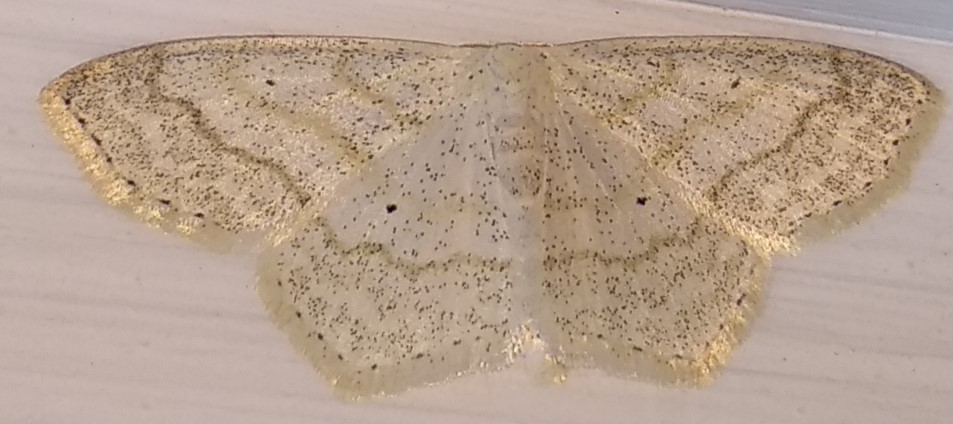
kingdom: Animalia
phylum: Arthropoda
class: Insecta
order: Lepidoptera
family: Geometridae
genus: Scopula
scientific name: Scopula limboundata
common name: Large lace border
